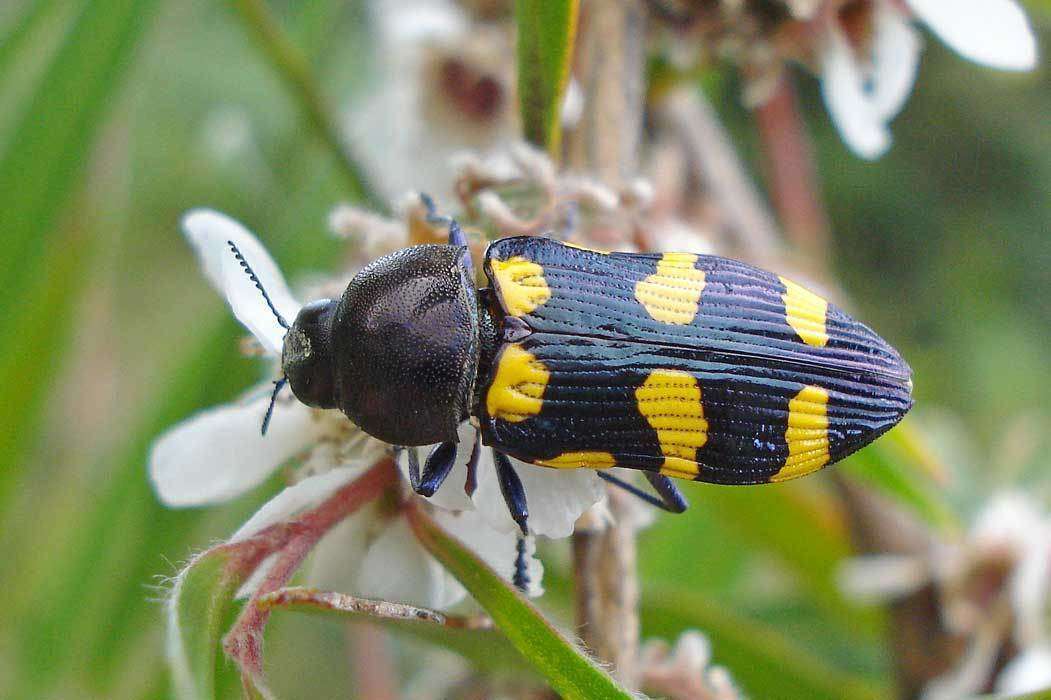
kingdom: Animalia
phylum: Arthropoda
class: Insecta
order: Coleoptera
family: Buprestidae
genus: Castiarina
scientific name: Castiarina australasiae
